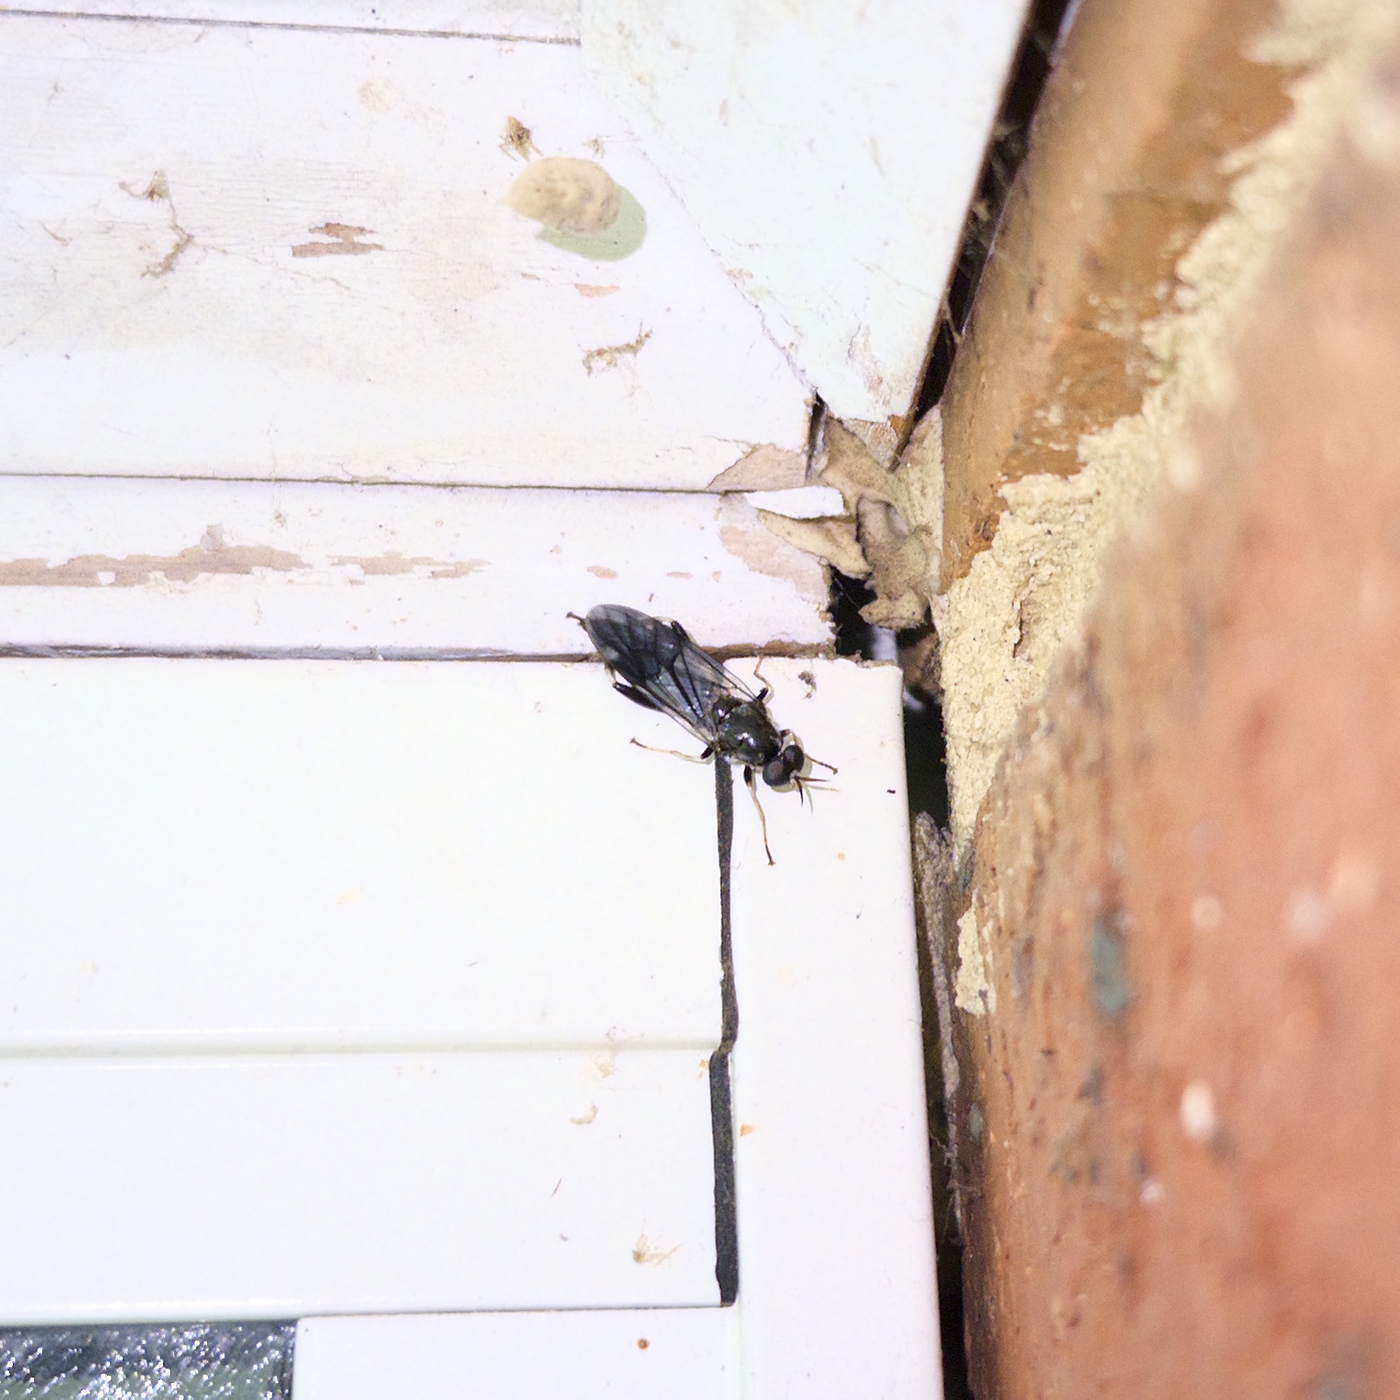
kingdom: Animalia
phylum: Arthropoda
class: Insecta
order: Diptera
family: Stratiomyidae
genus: Exaireta
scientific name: Exaireta spinigera
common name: Blue soldier fly
